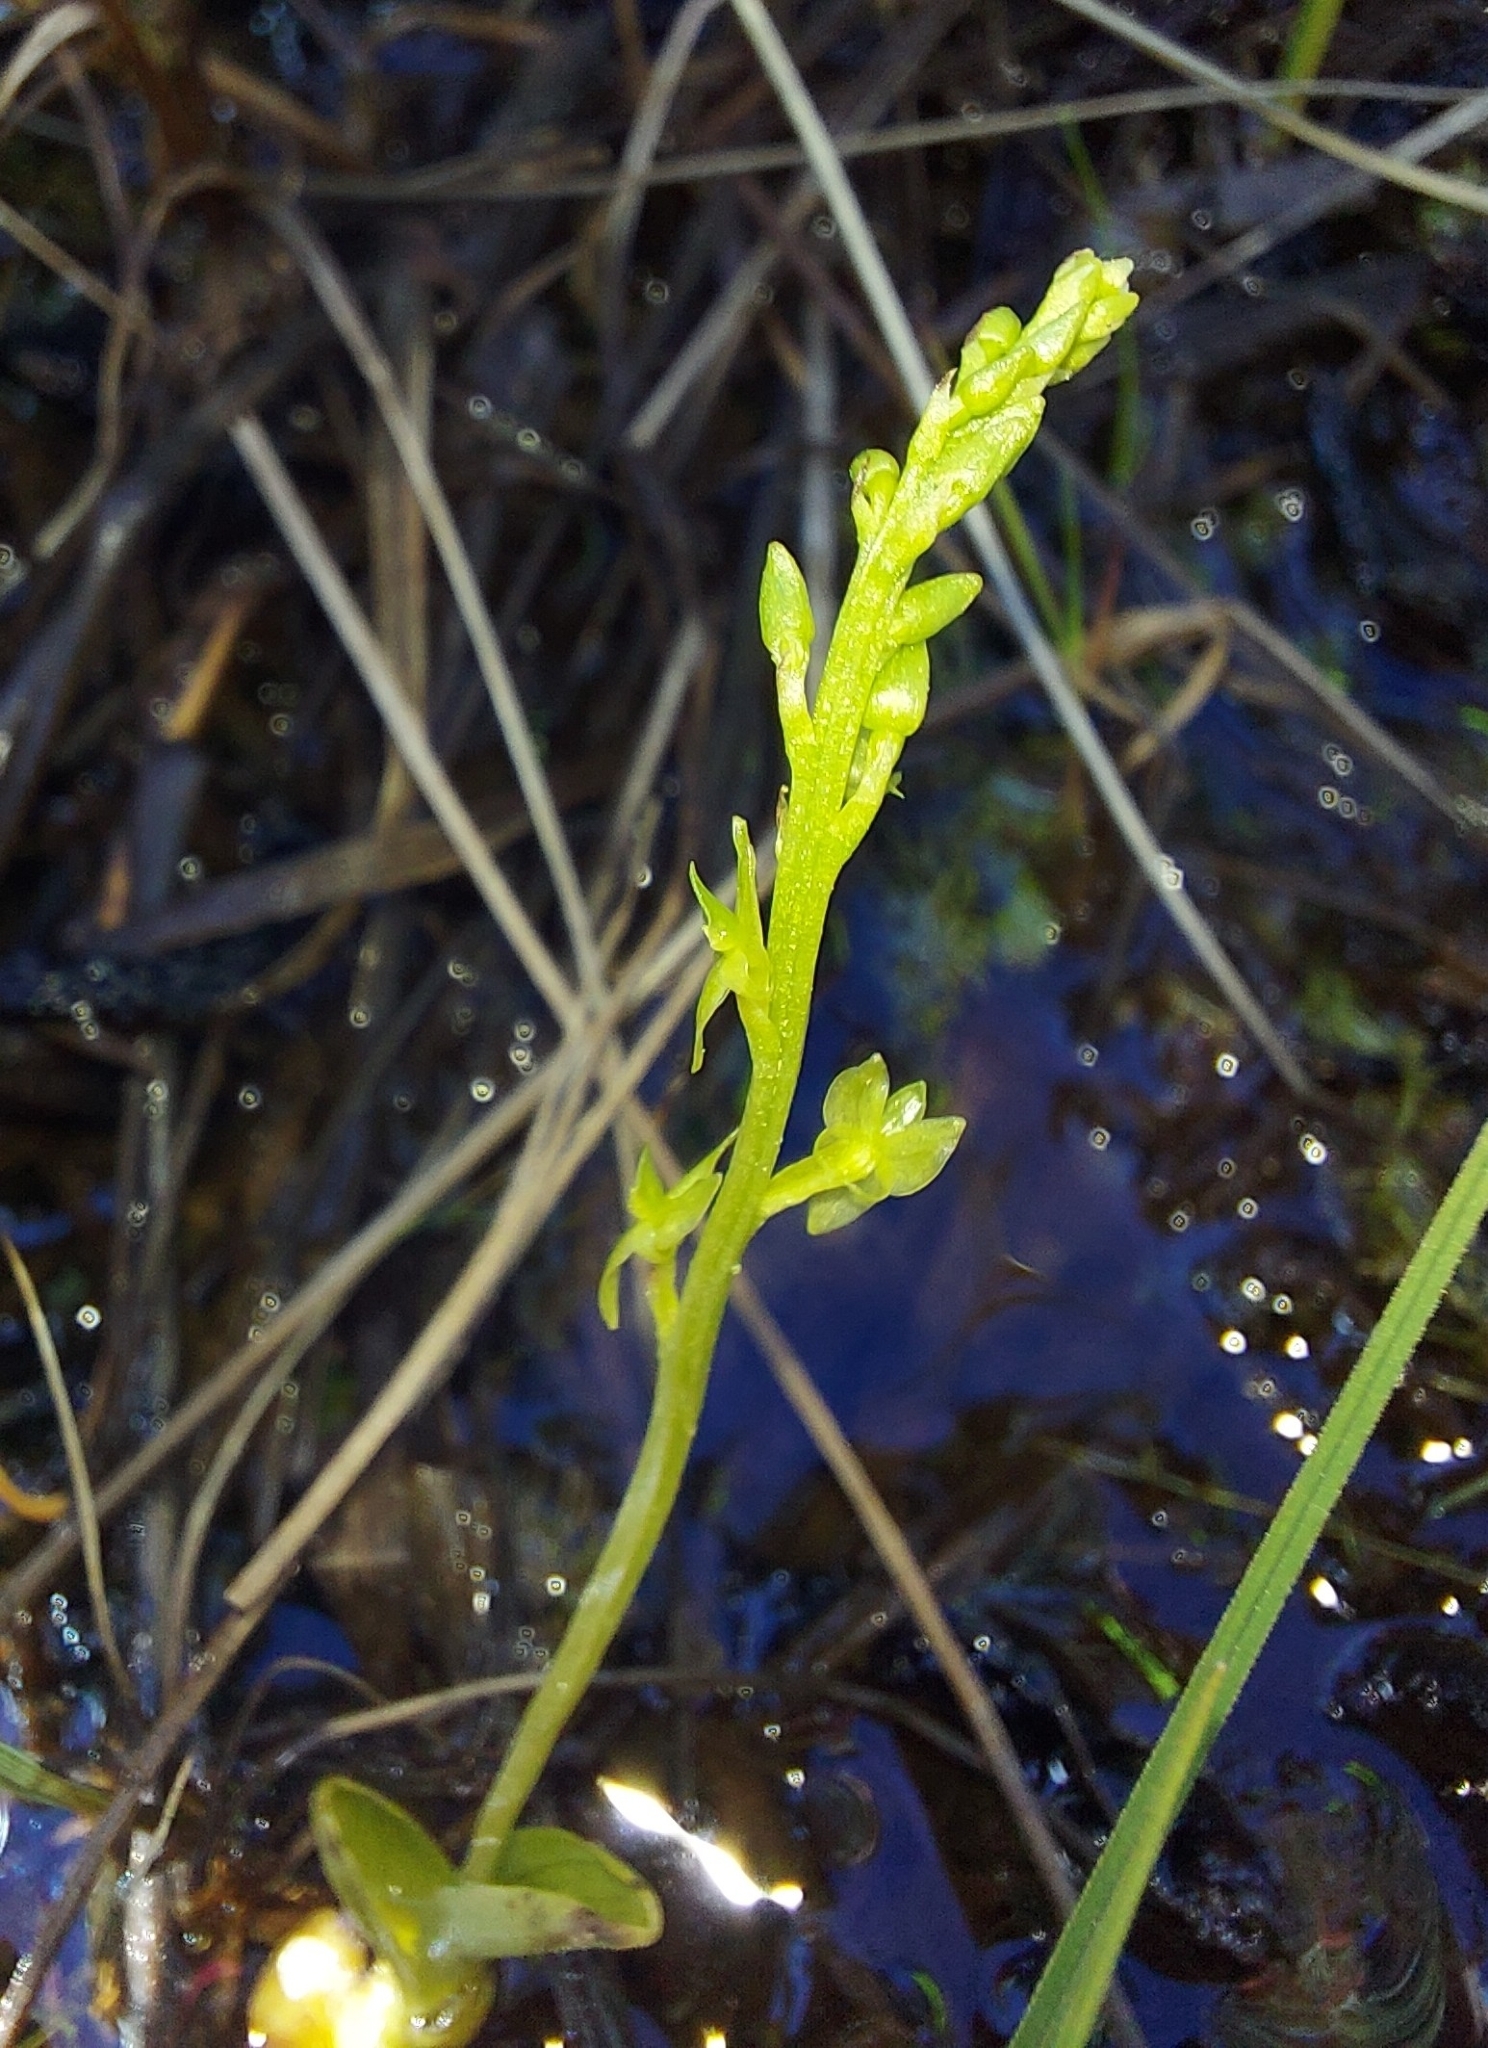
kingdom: Plantae
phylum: Tracheophyta
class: Liliopsida
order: Asparagales
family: Orchidaceae
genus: Hammarbya
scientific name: Hammarbya paludosa
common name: Bog orchid
